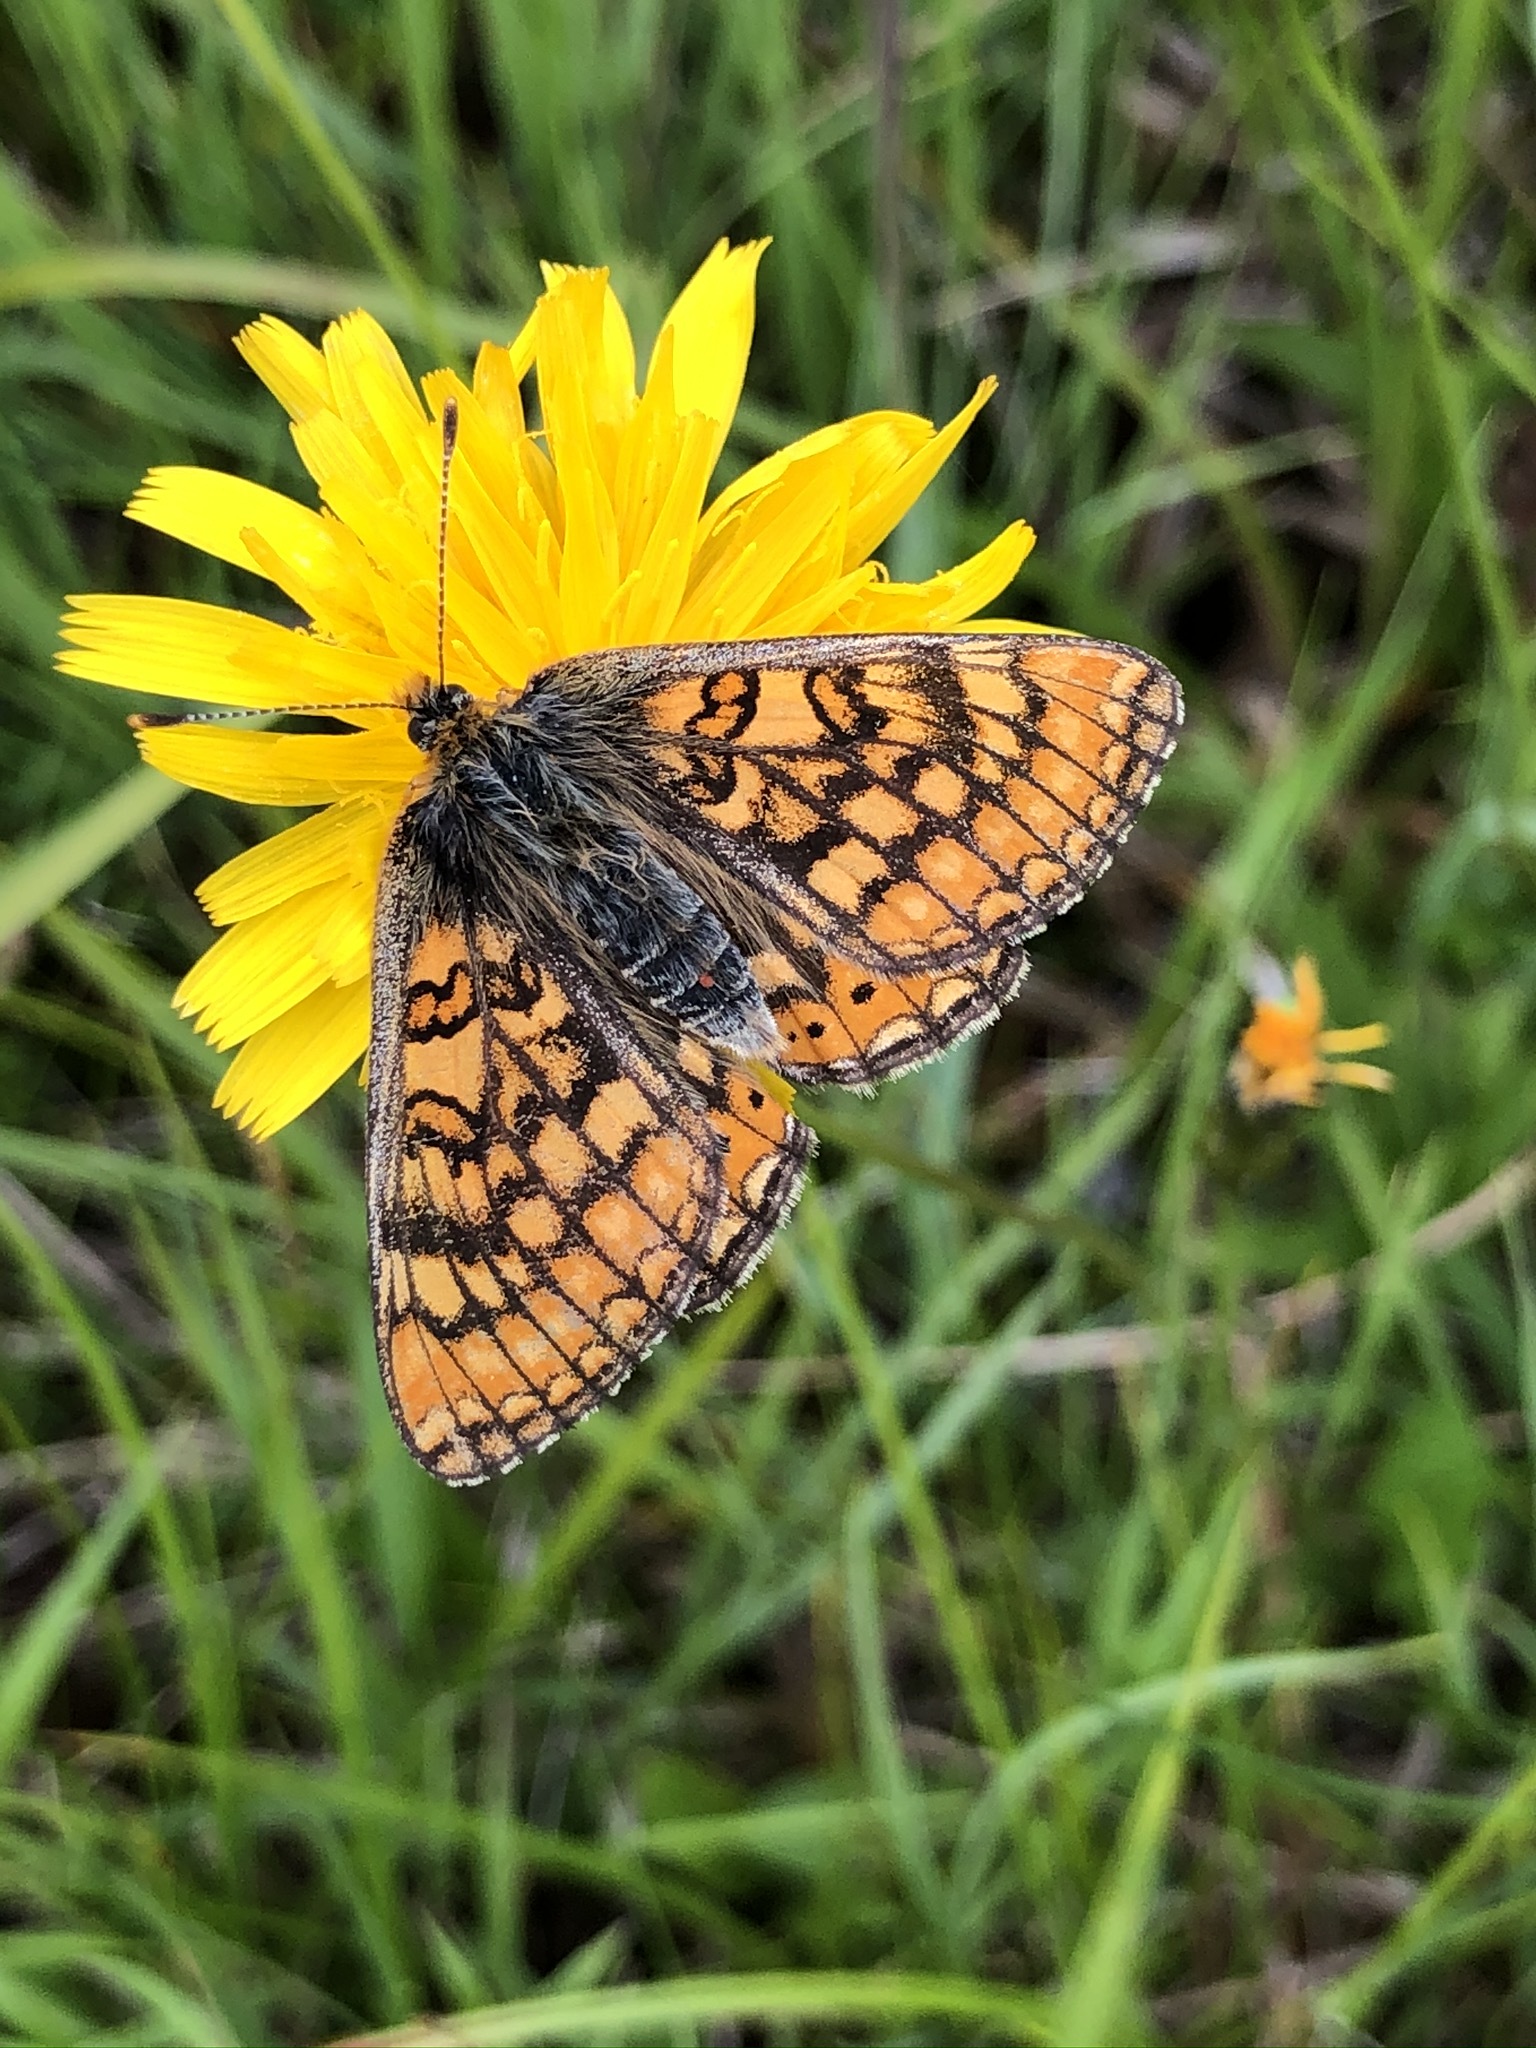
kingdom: Animalia
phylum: Arthropoda
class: Insecta
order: Lepidoptera
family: Nymphalidae
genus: Euphydryas
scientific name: Euphydryas aurinia
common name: Marsh fritillary
